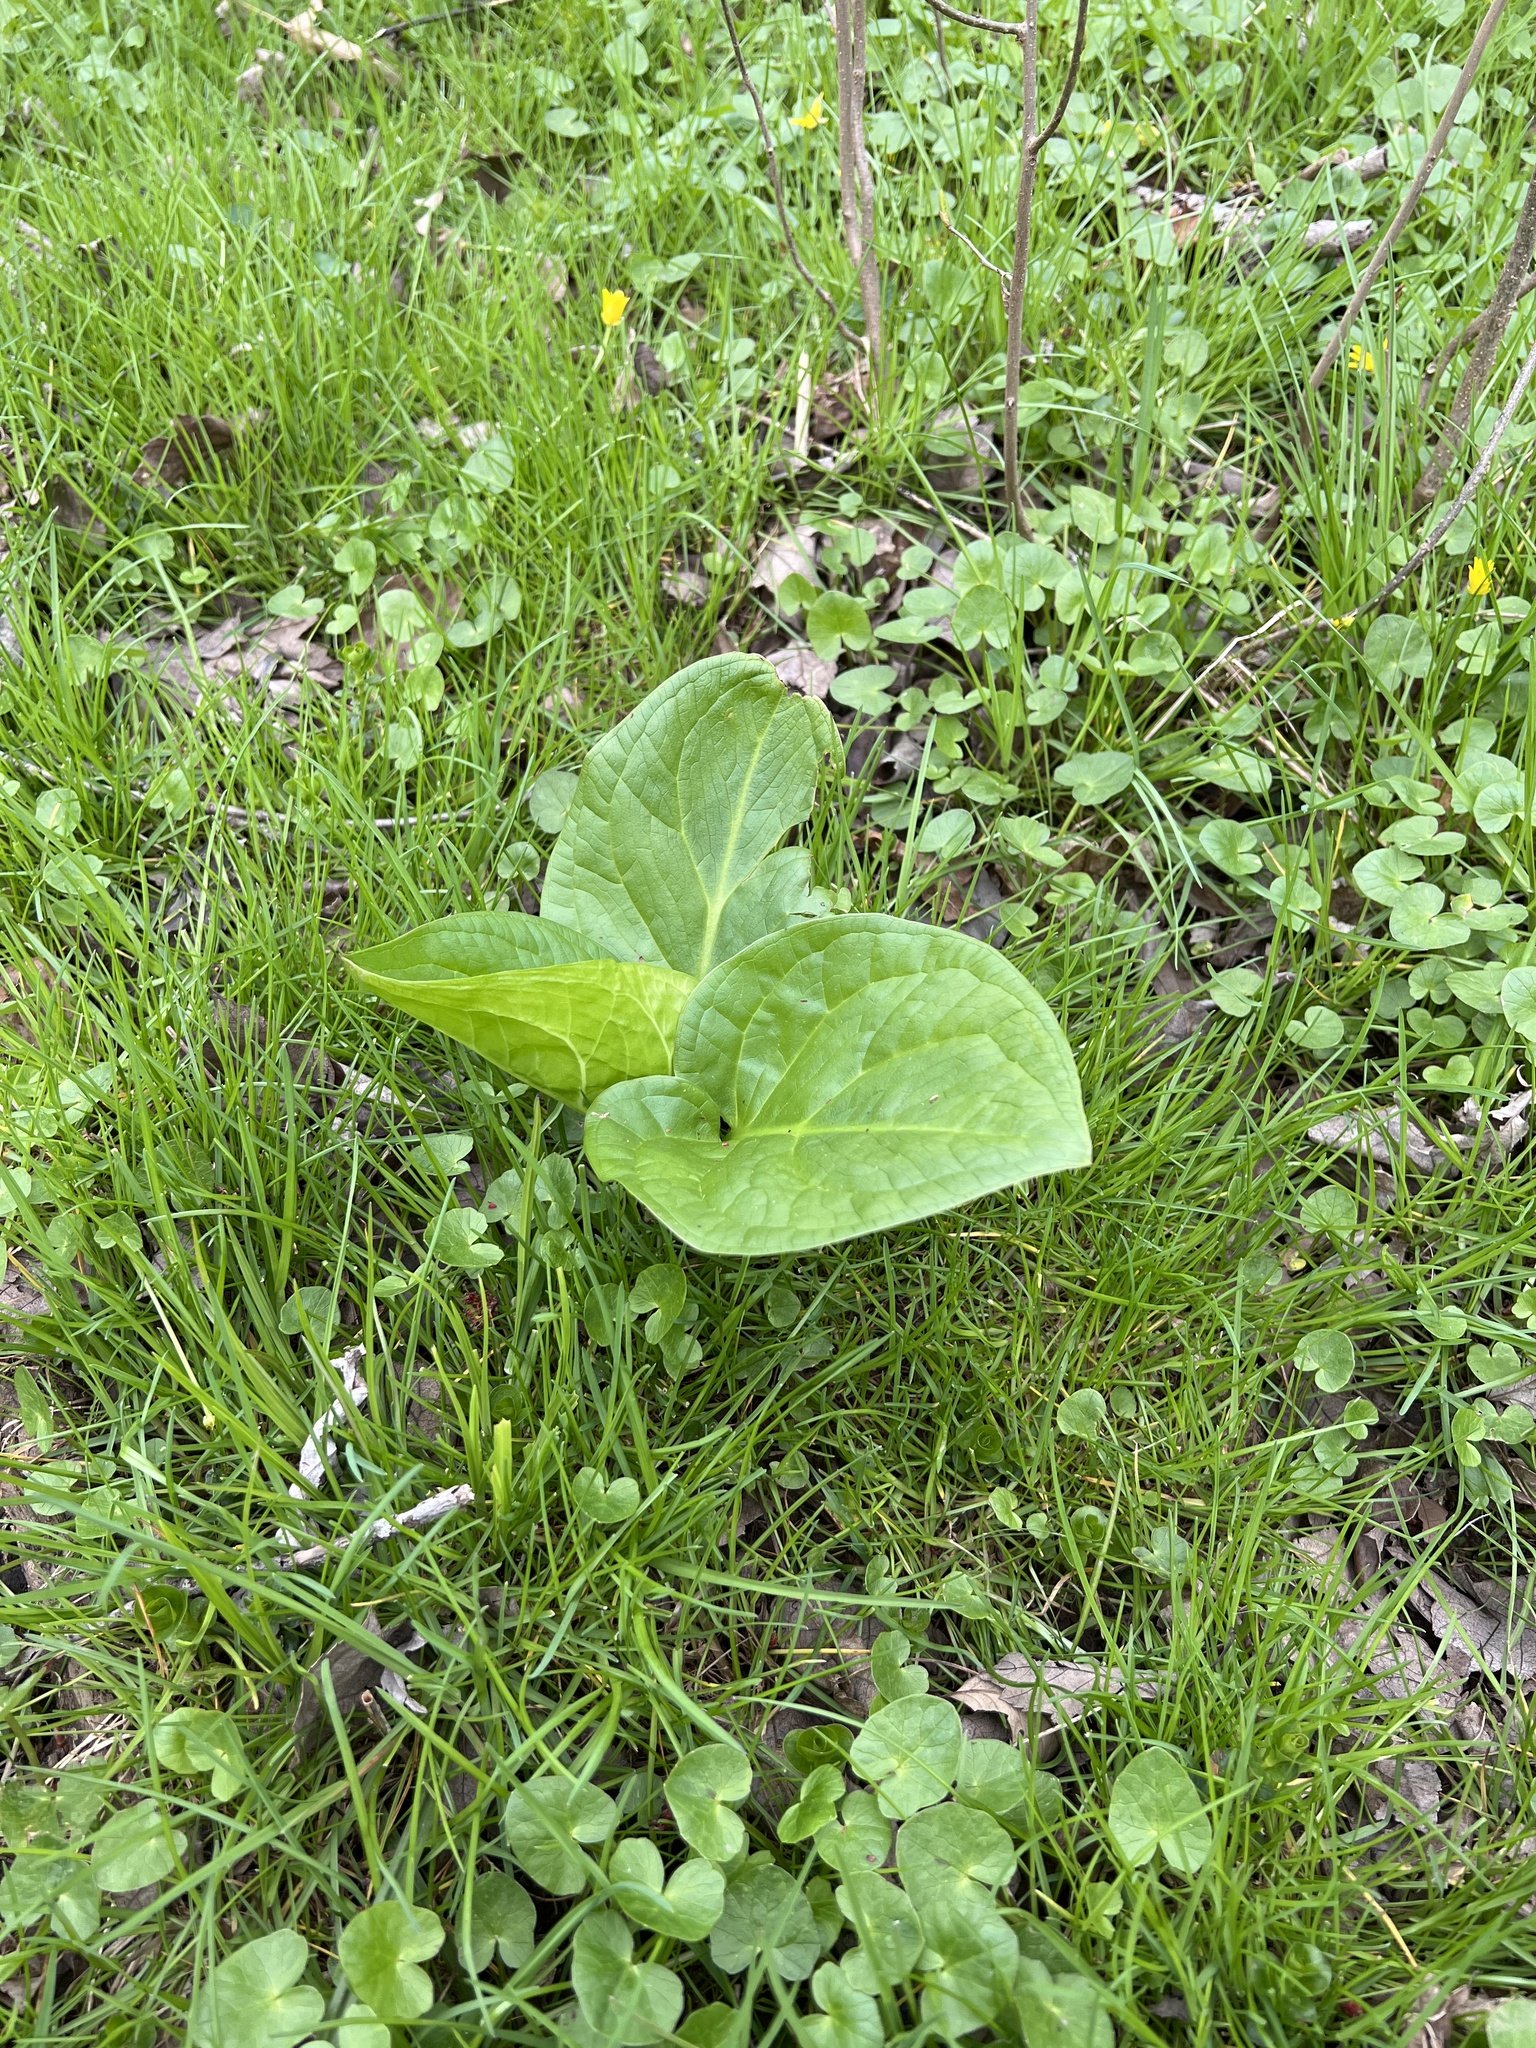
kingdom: Plantae
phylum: Tracheophyta
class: Liliopsida
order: Alismatales
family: Araceae
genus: Symplocarpus
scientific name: Symplocarpus foetidus
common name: Eastern skunk cabbage
